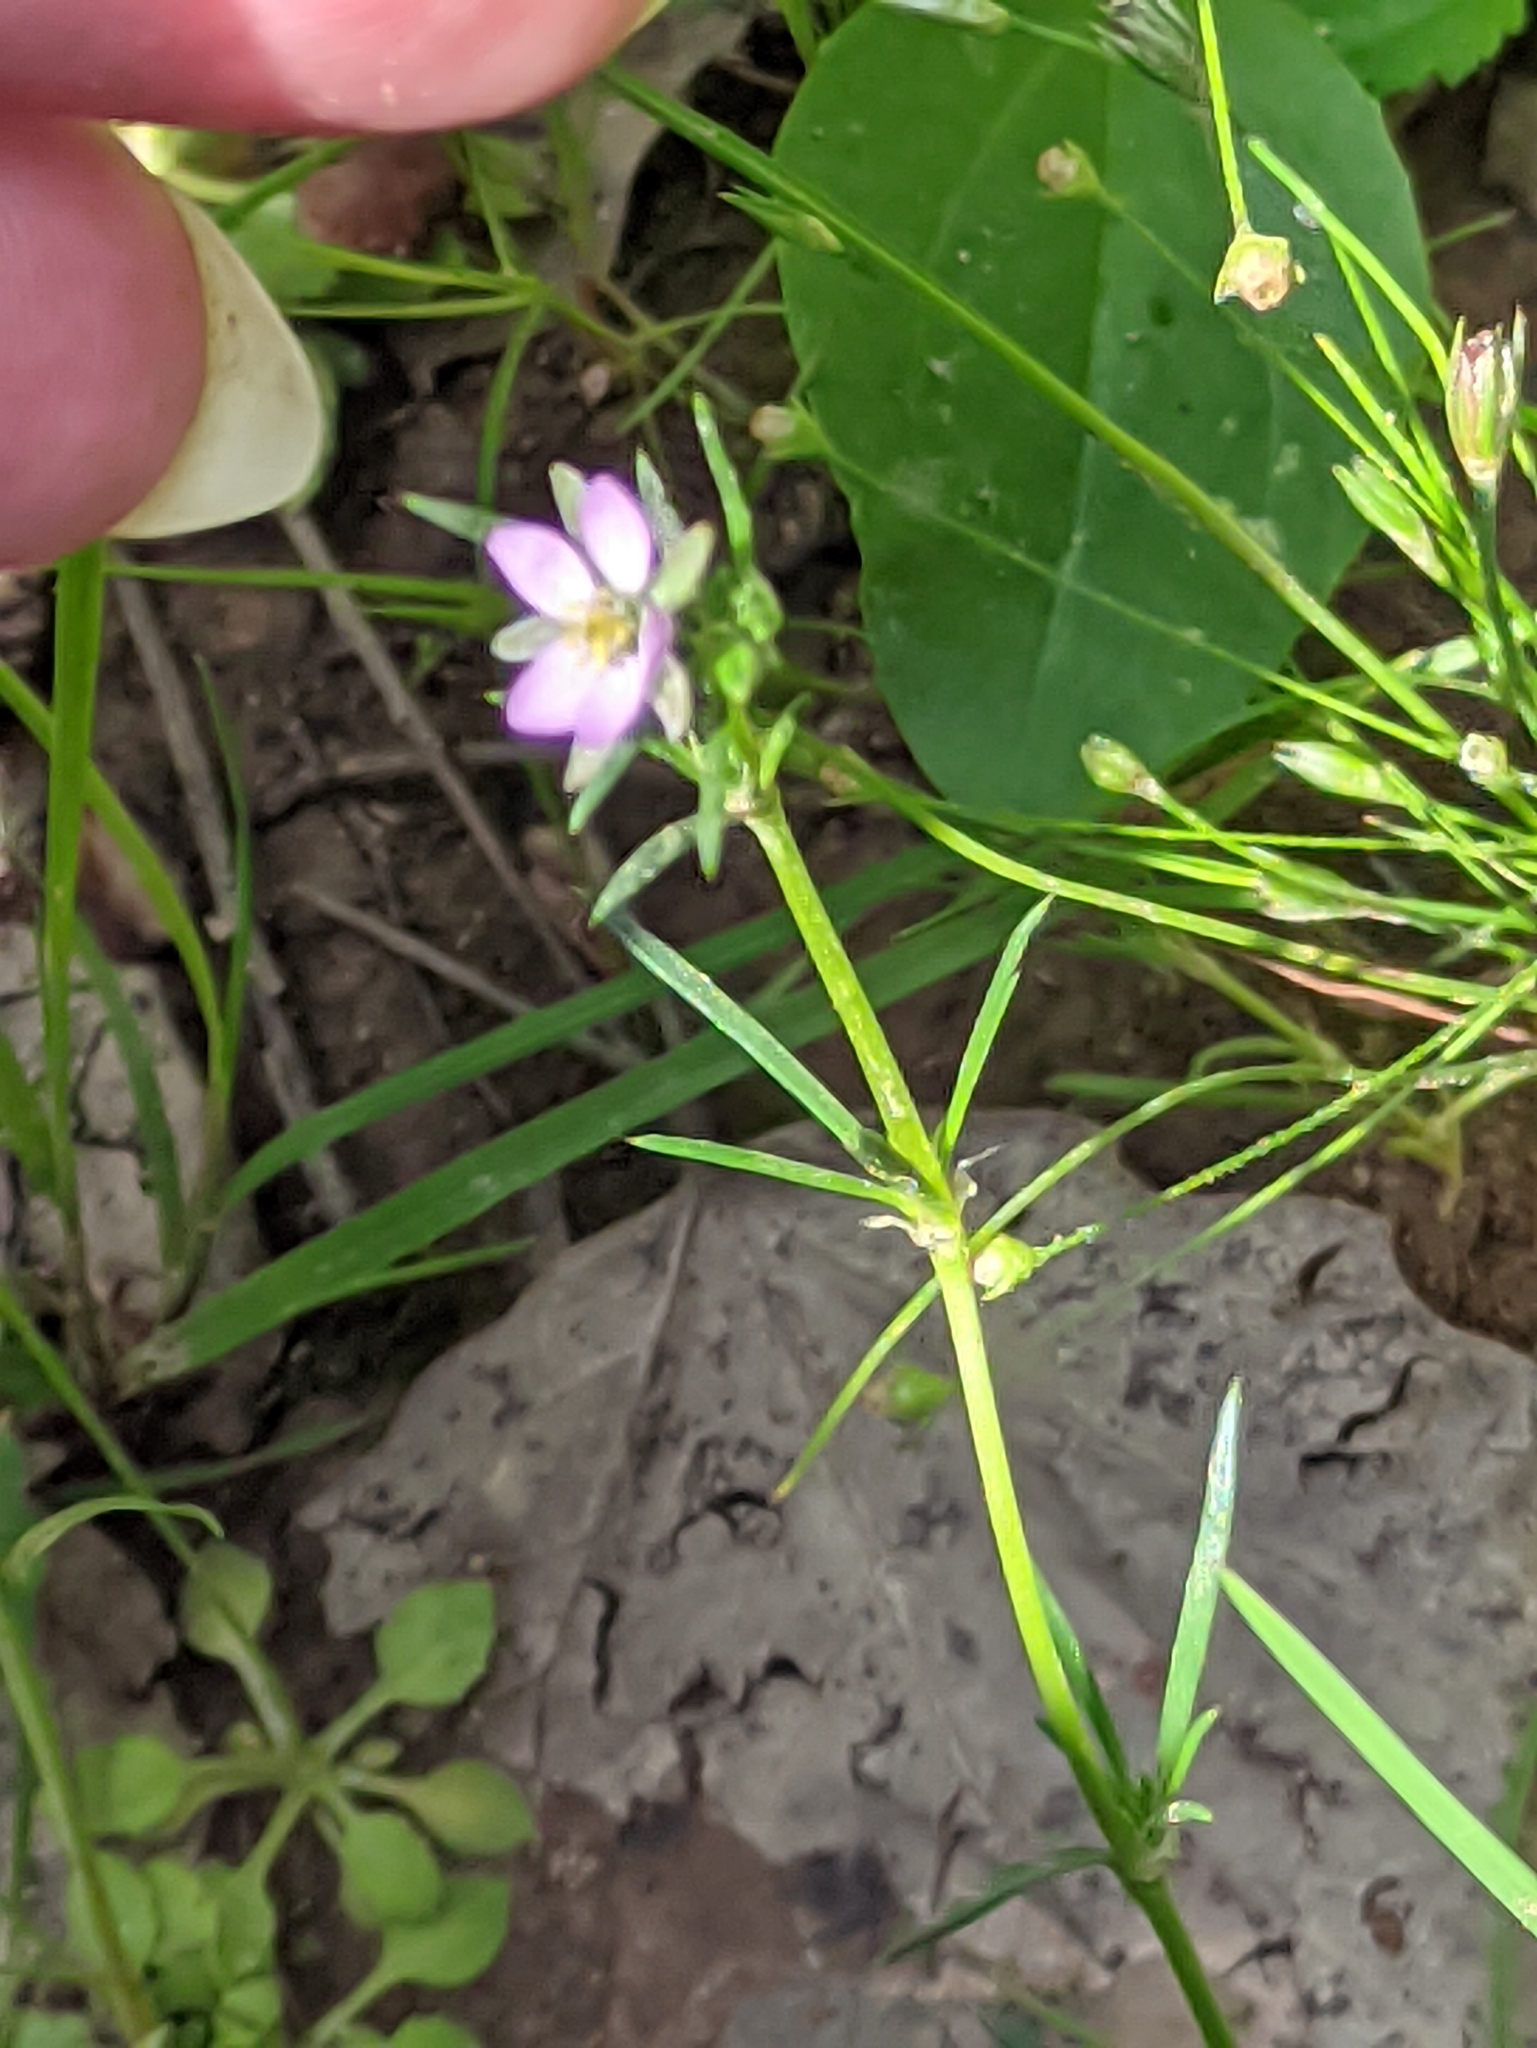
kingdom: Plantae
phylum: Tracheophyta
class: Magnoliopsida
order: Caryophyllales
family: Caryophyllaceae
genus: Spergularia
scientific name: Spergularia rubra
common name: Red sand-spurrey
